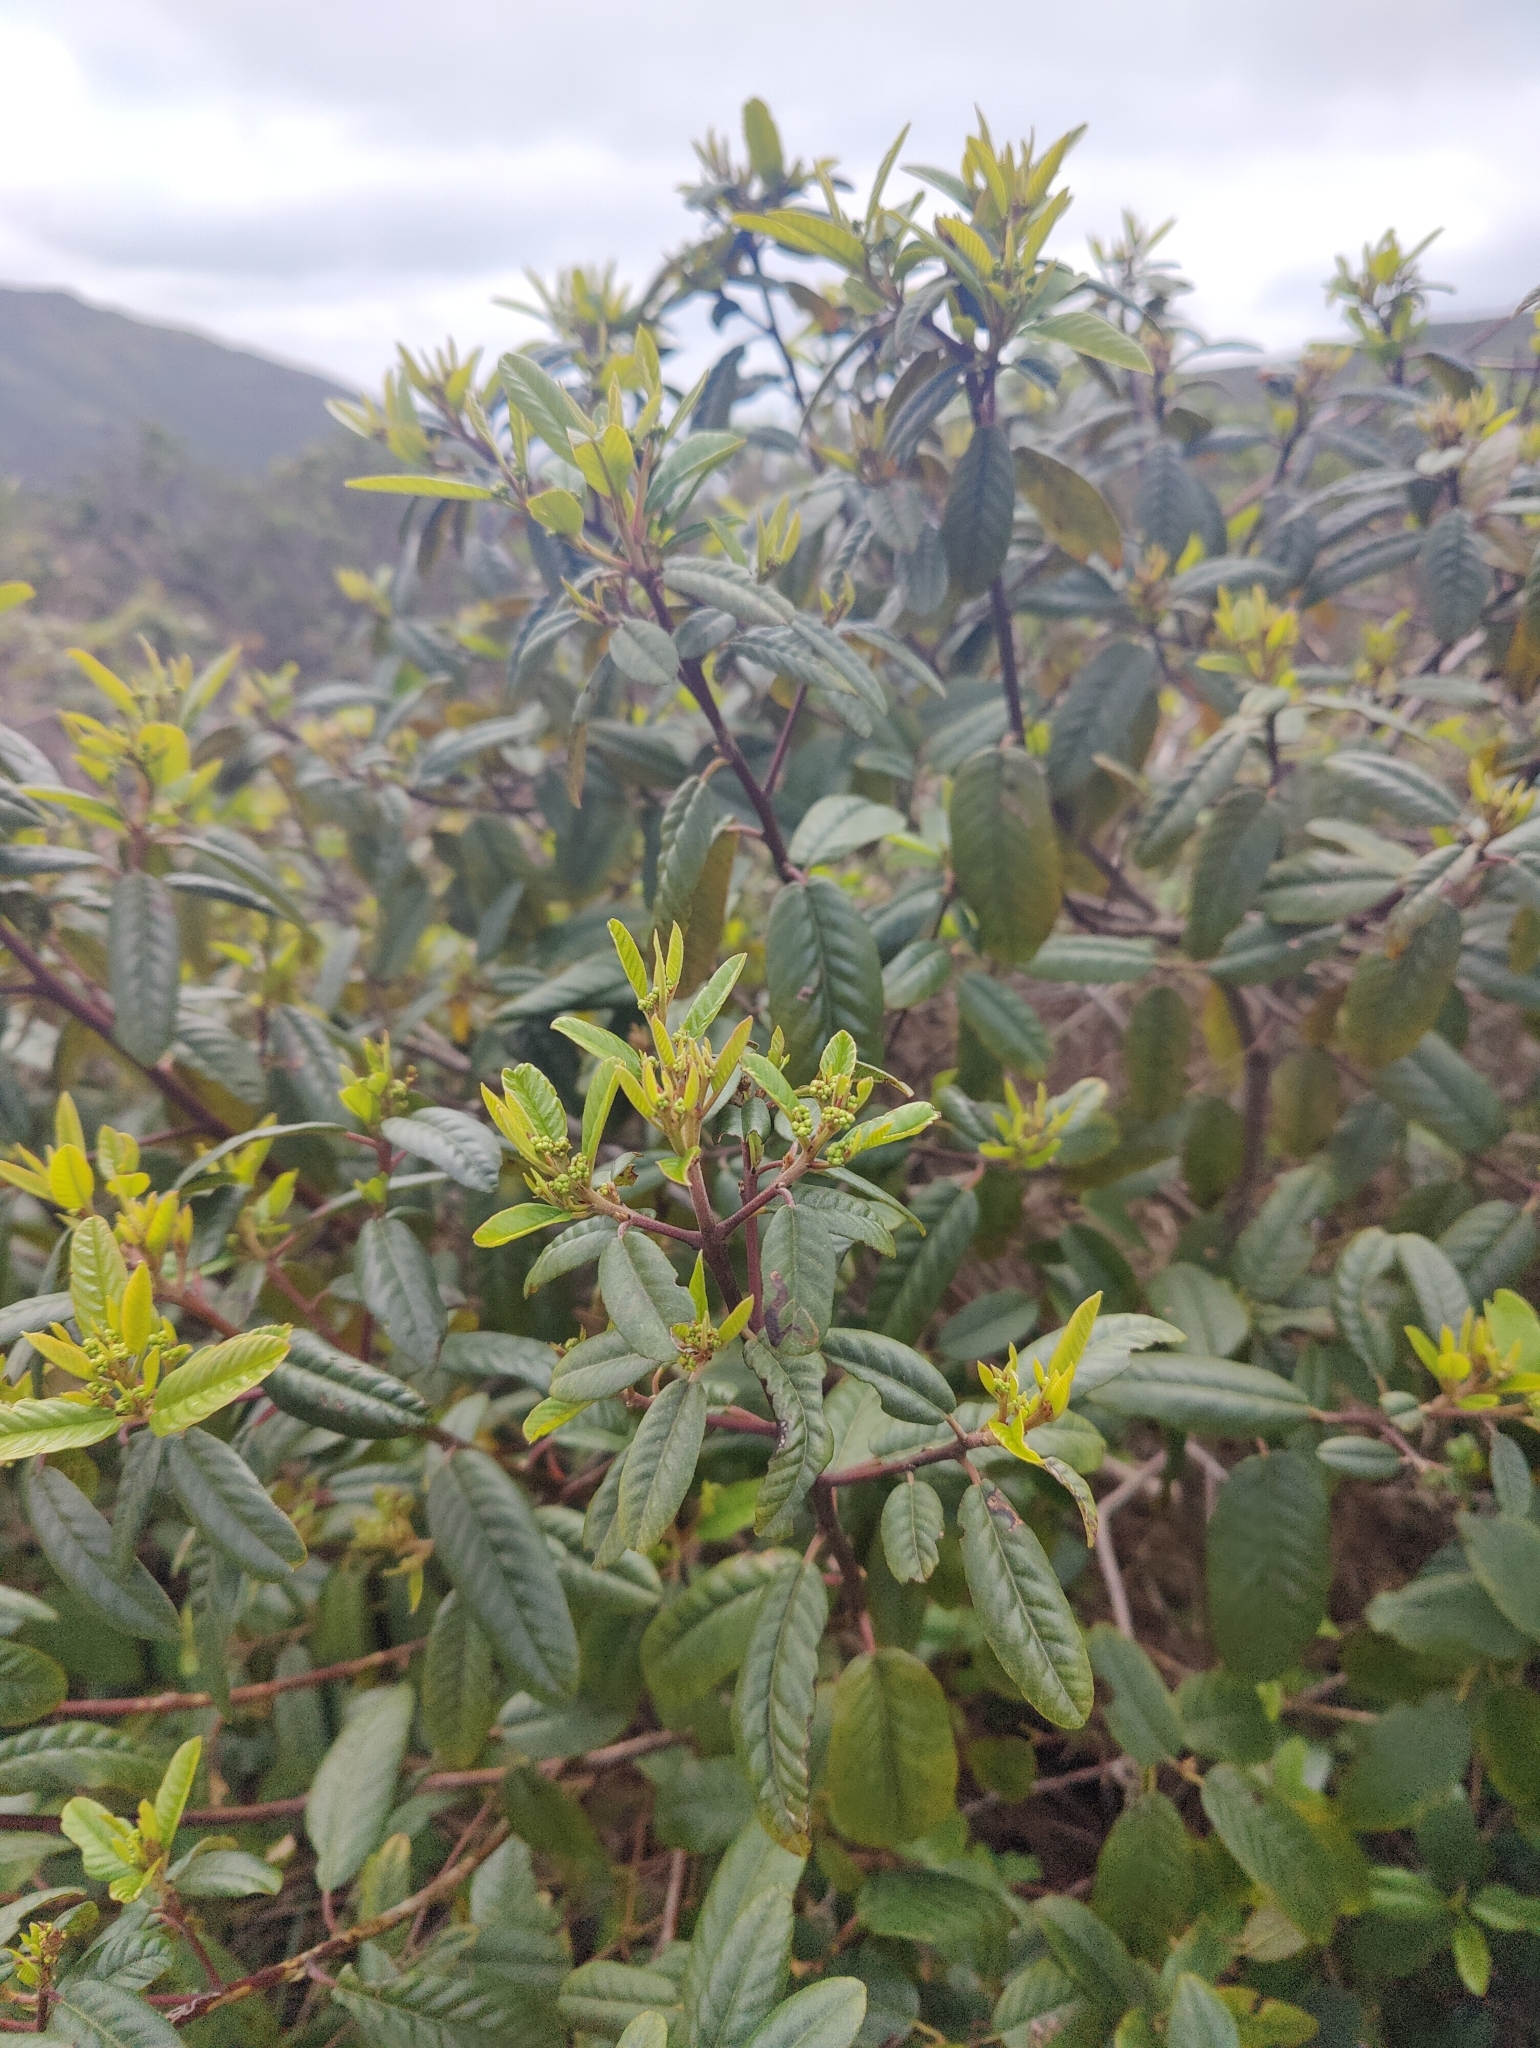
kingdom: Plantae
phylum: Tracheophyta
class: Magnoliopsida
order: Rosales
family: Rhamnaceae
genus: Frangula
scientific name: Frangula californica
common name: California buckthorn
